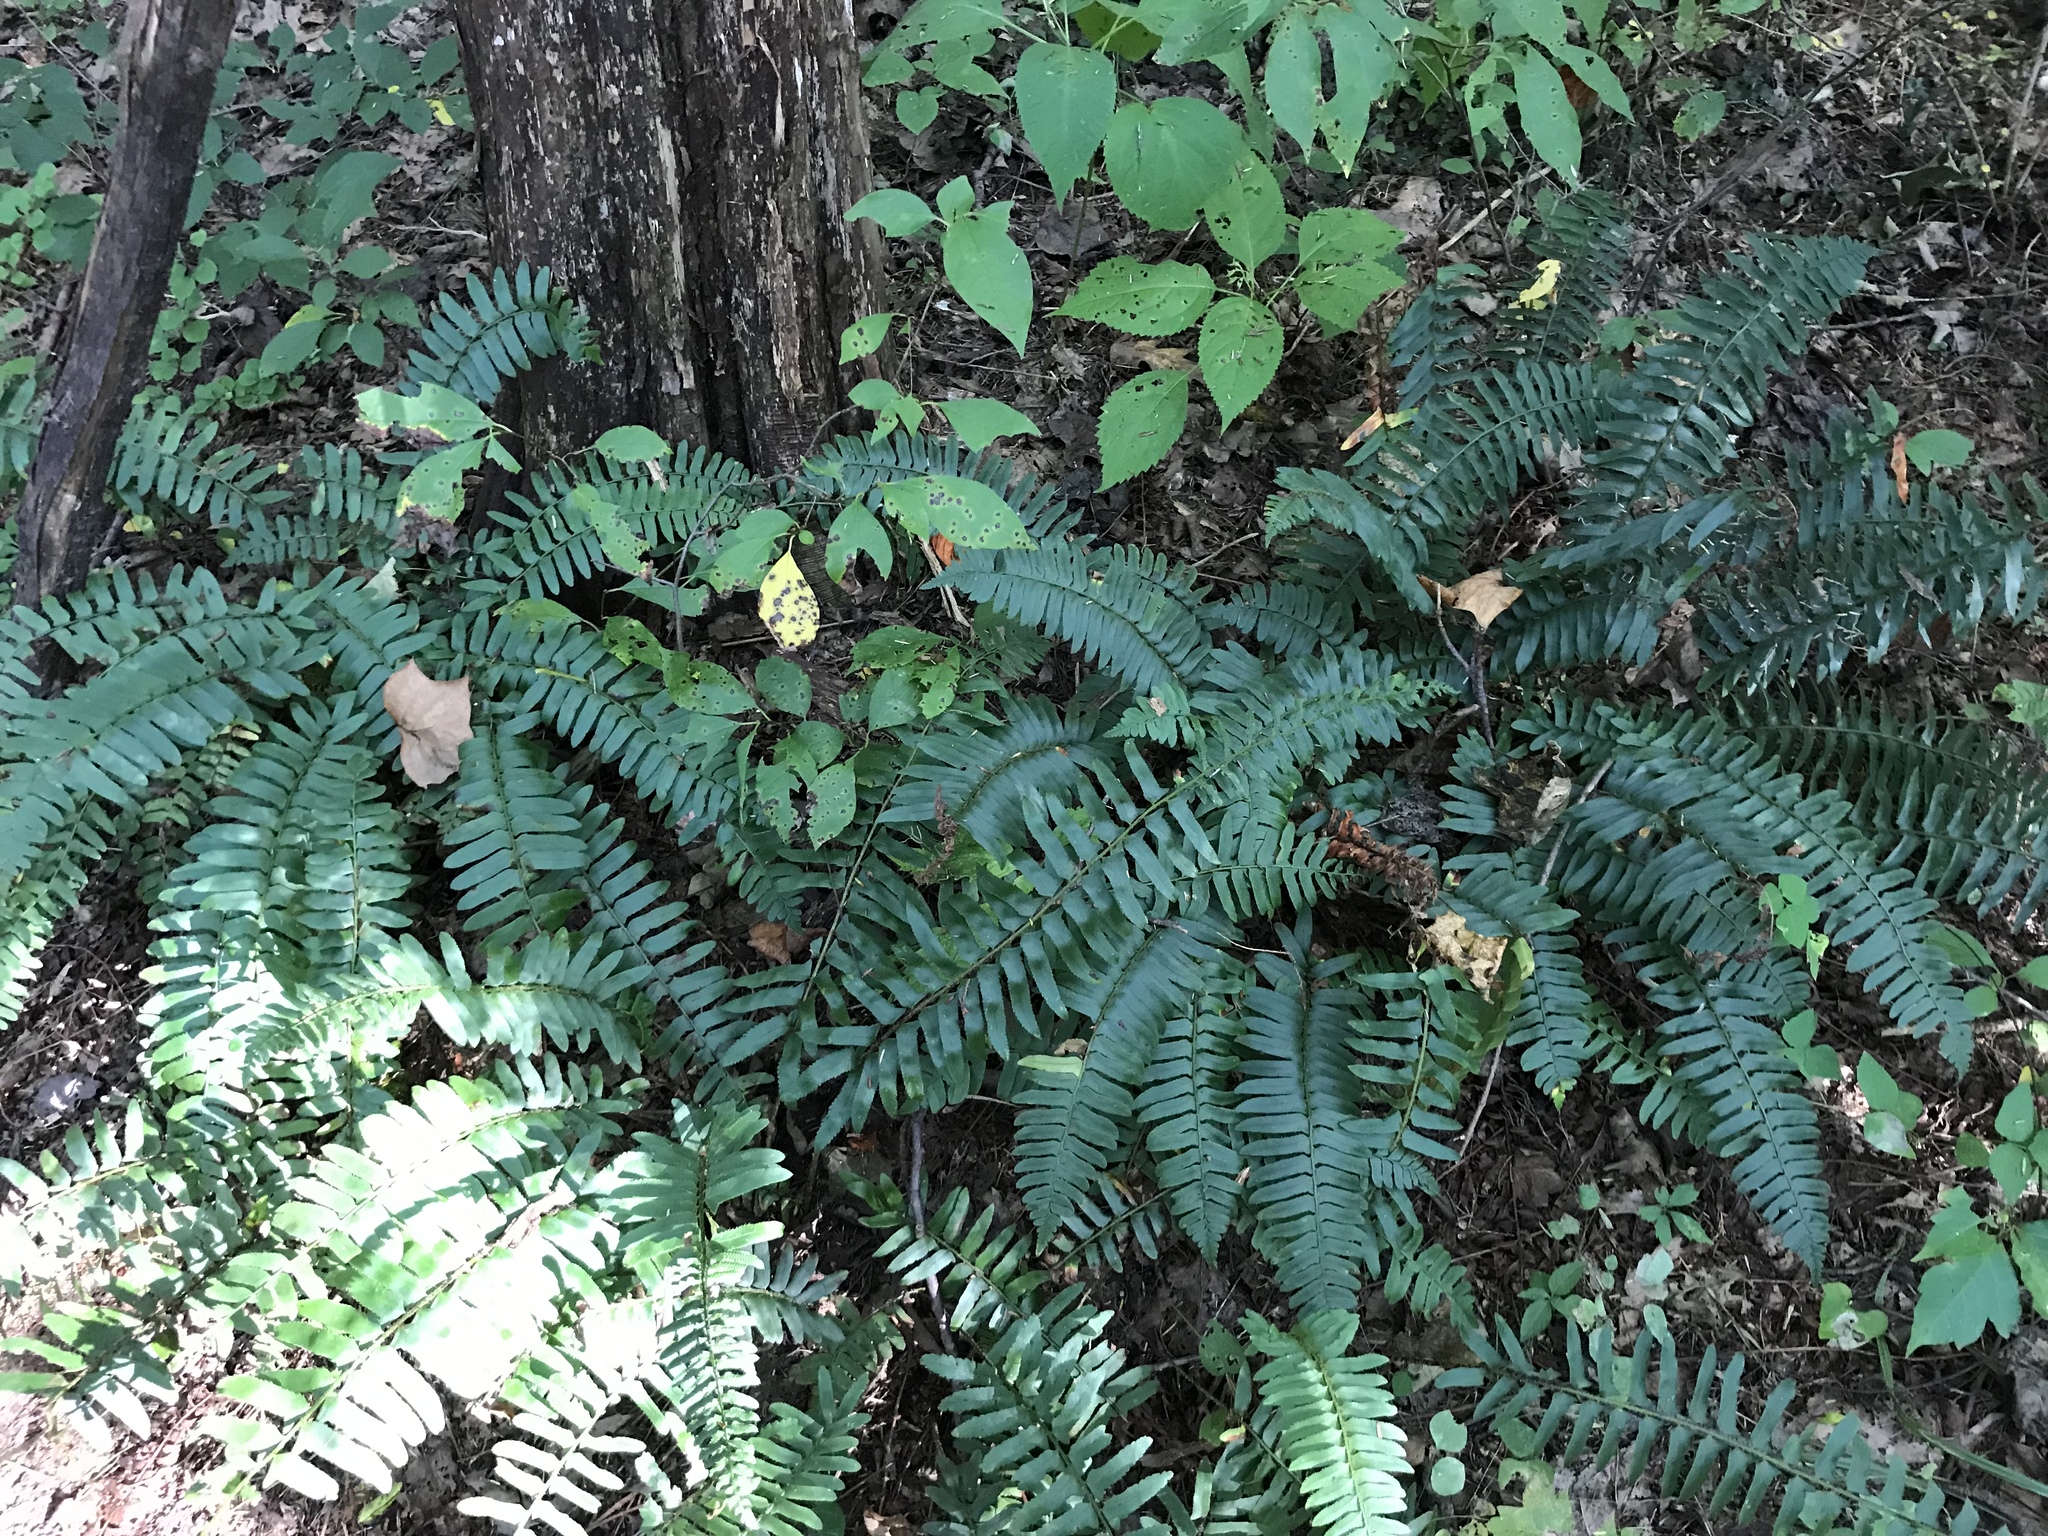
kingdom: Plantae
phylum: Tracheophyta
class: Polypodiopsida
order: Polypodiales
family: Dryopteridaceae
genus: Polystichum
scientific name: Polystichum acrostichoides
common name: Christmas fern
